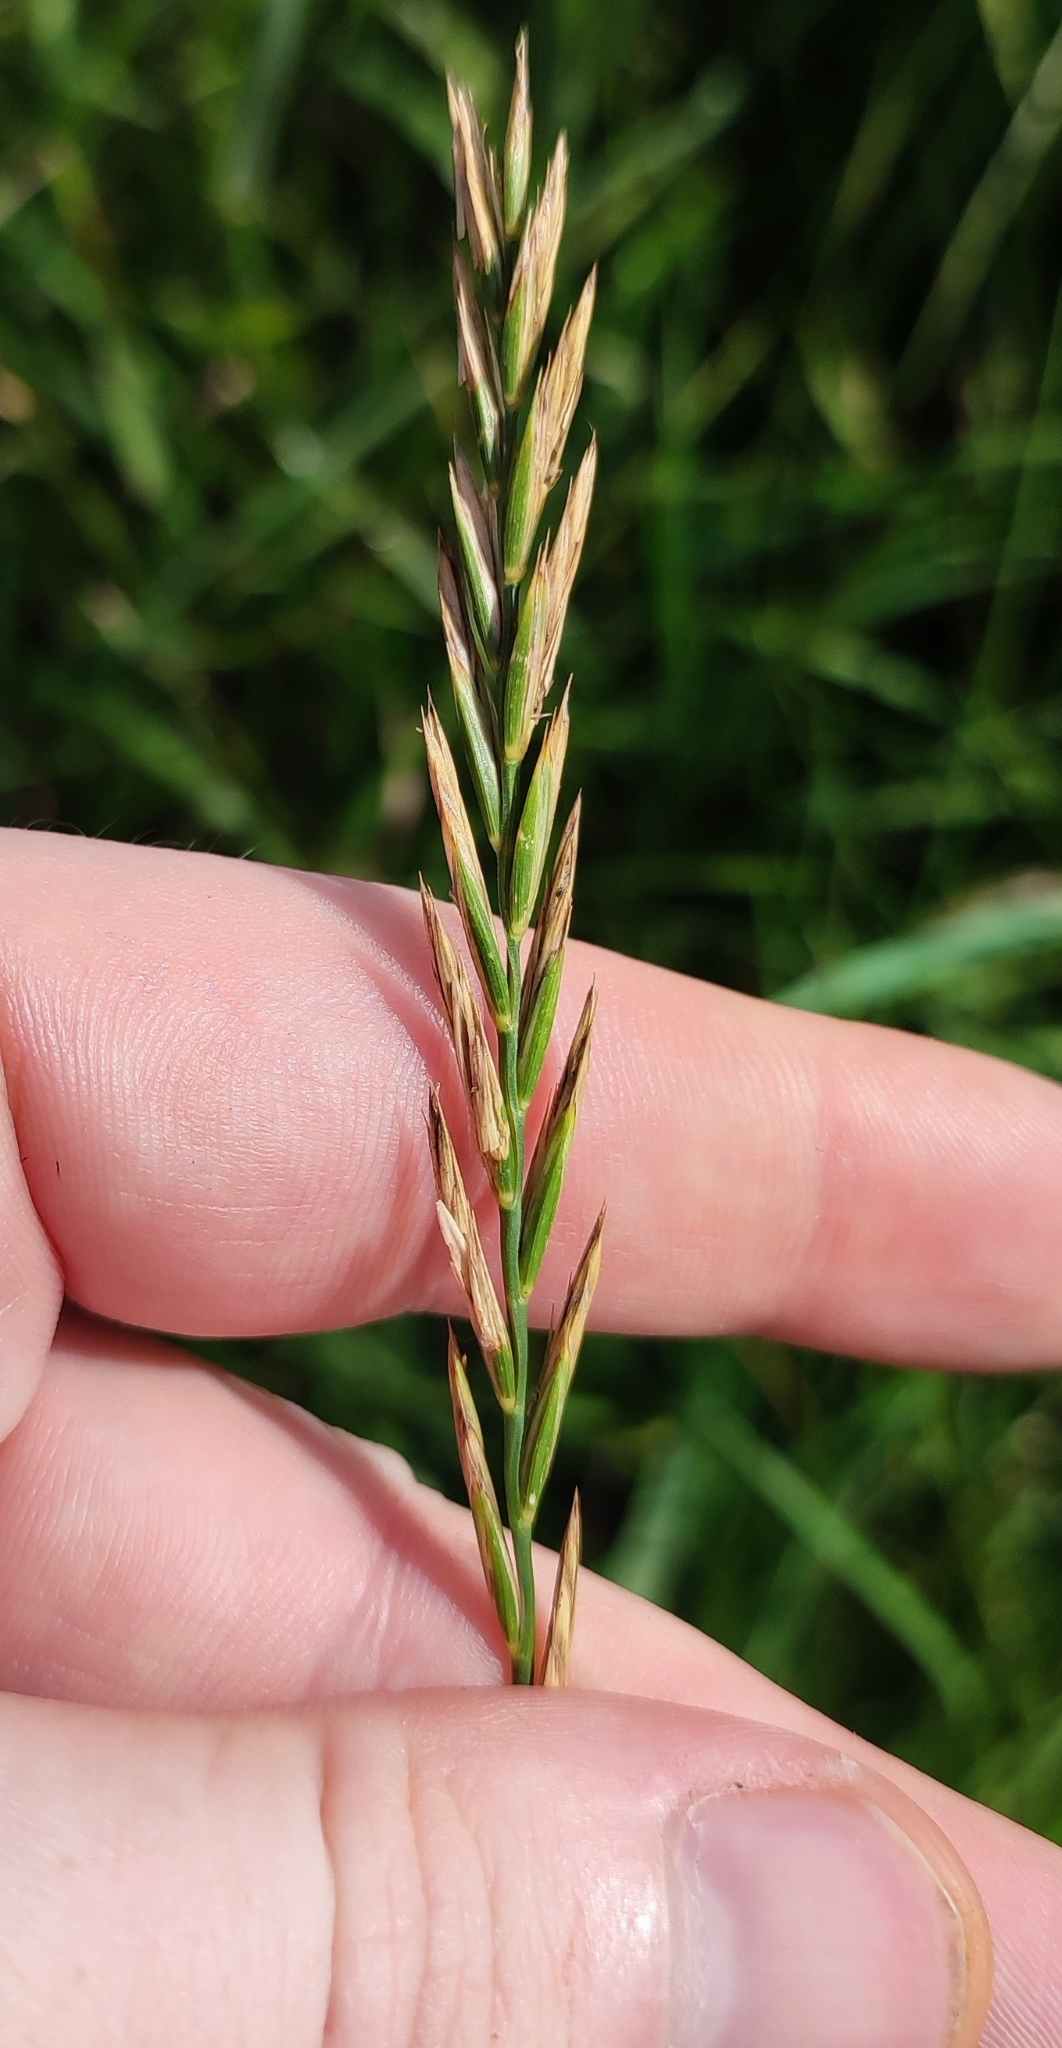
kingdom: Plantae
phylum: Tracheophyta
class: Liliopsida
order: Poales
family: Poaceae
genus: Elymus
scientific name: Elymus repens
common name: Quackgrass
